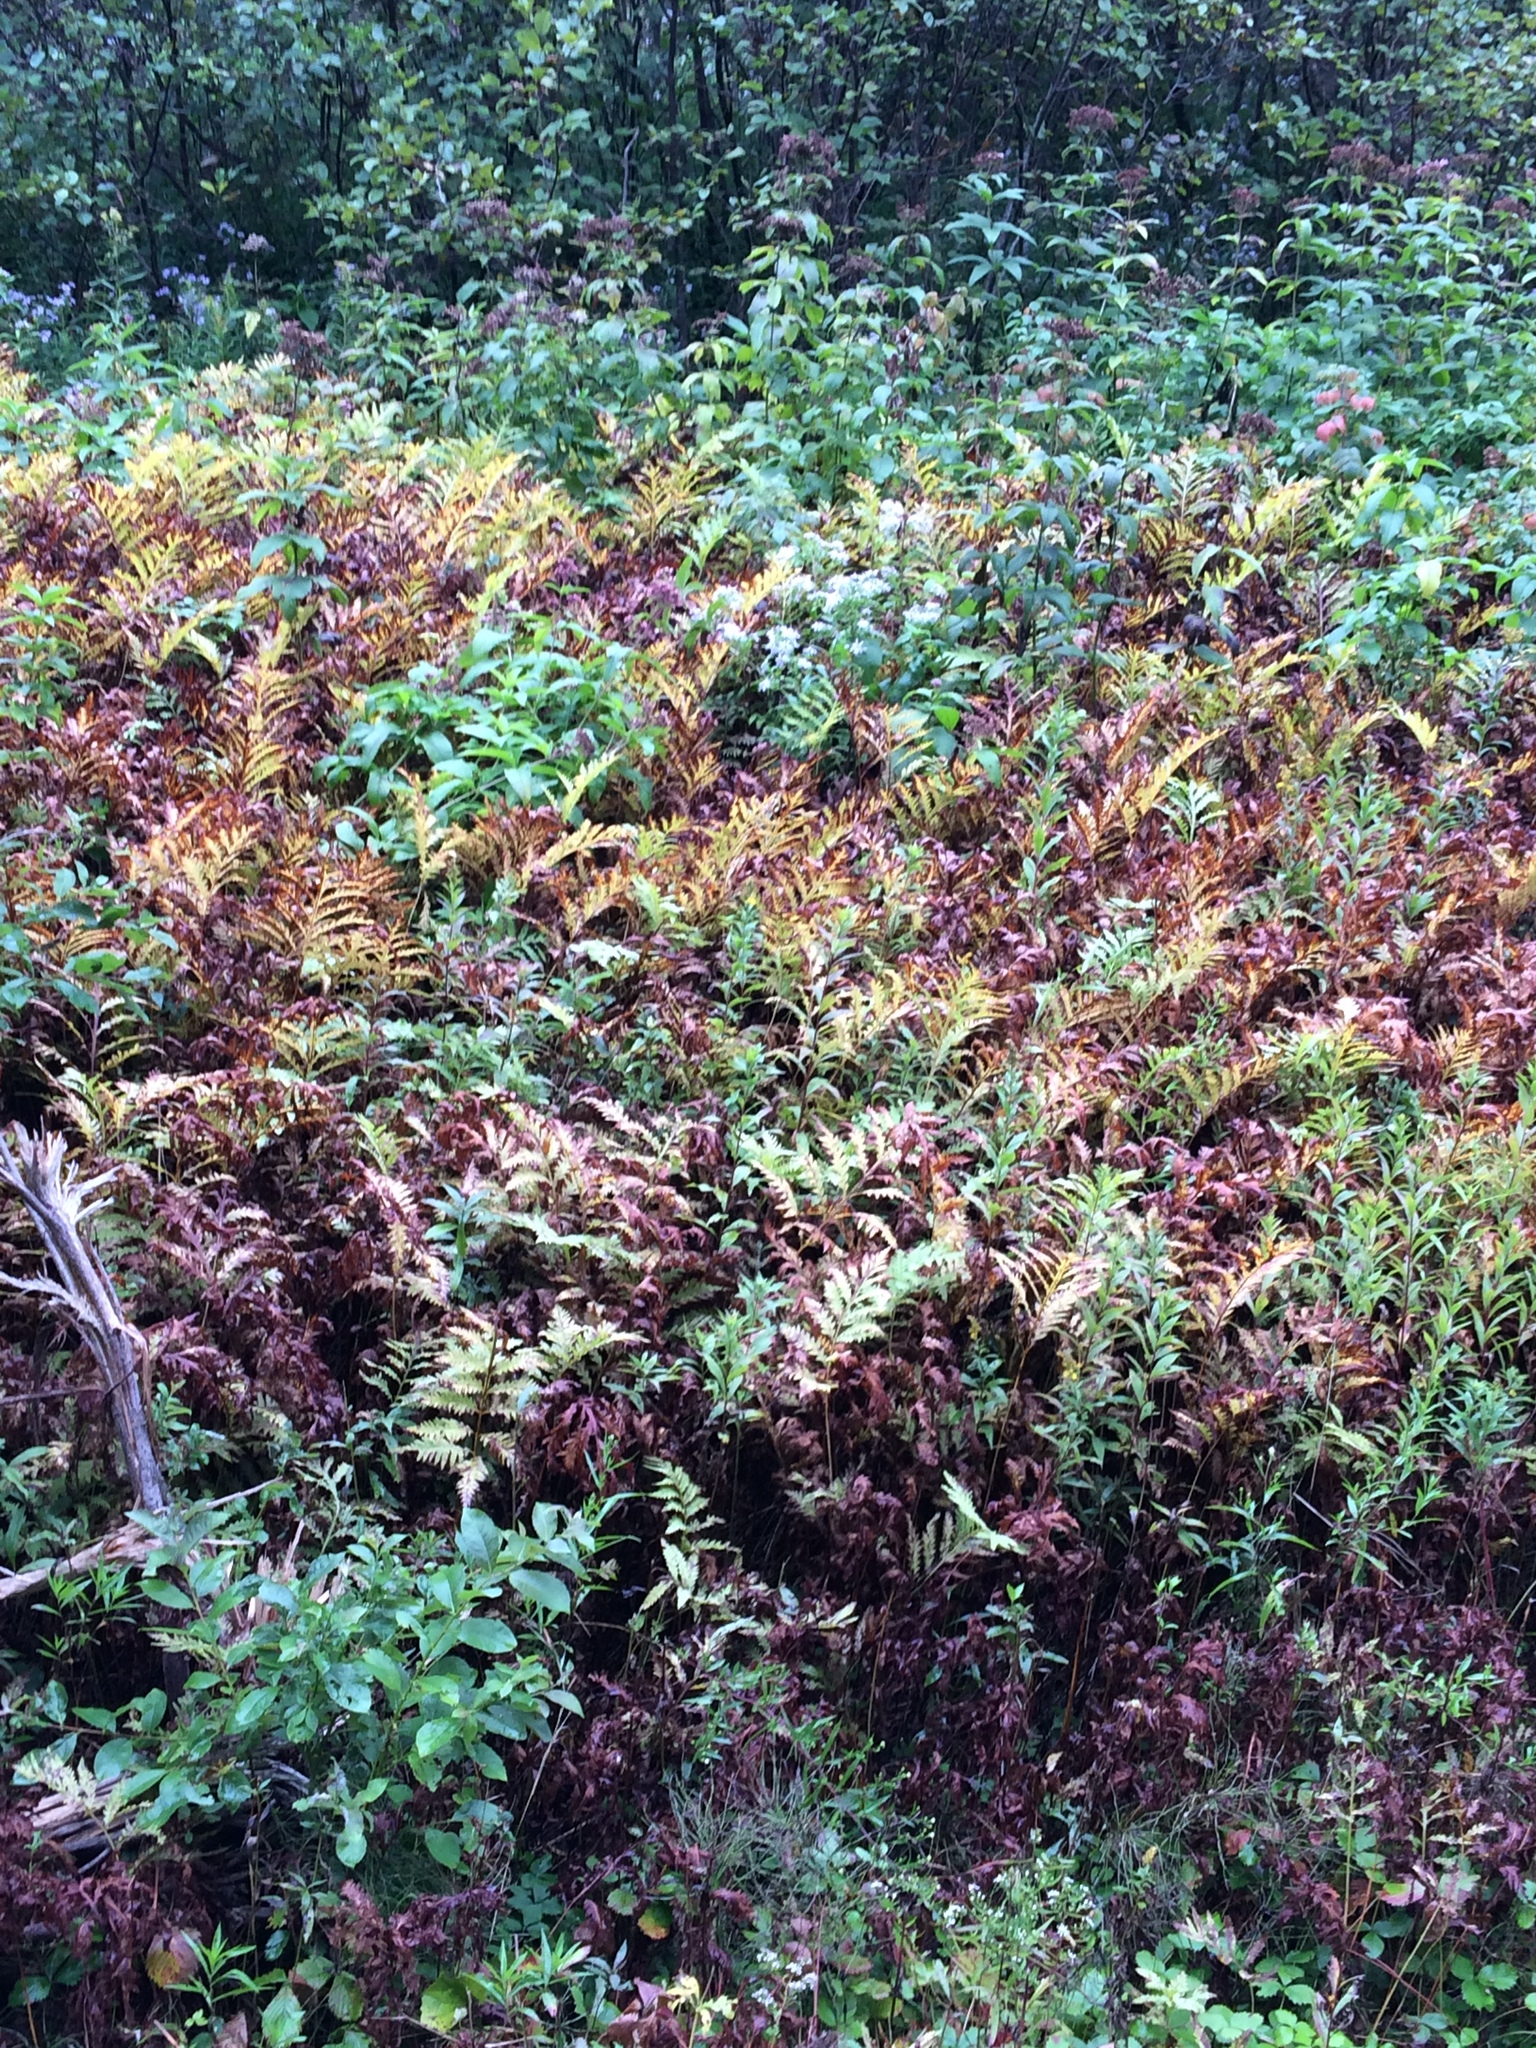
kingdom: Plantae
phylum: Tracheophyta
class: Polypodiopsida
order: Polypodiales
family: Onocleaceae
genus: Onoclea
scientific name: Onoclea sensibilis
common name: Sensitive fern
